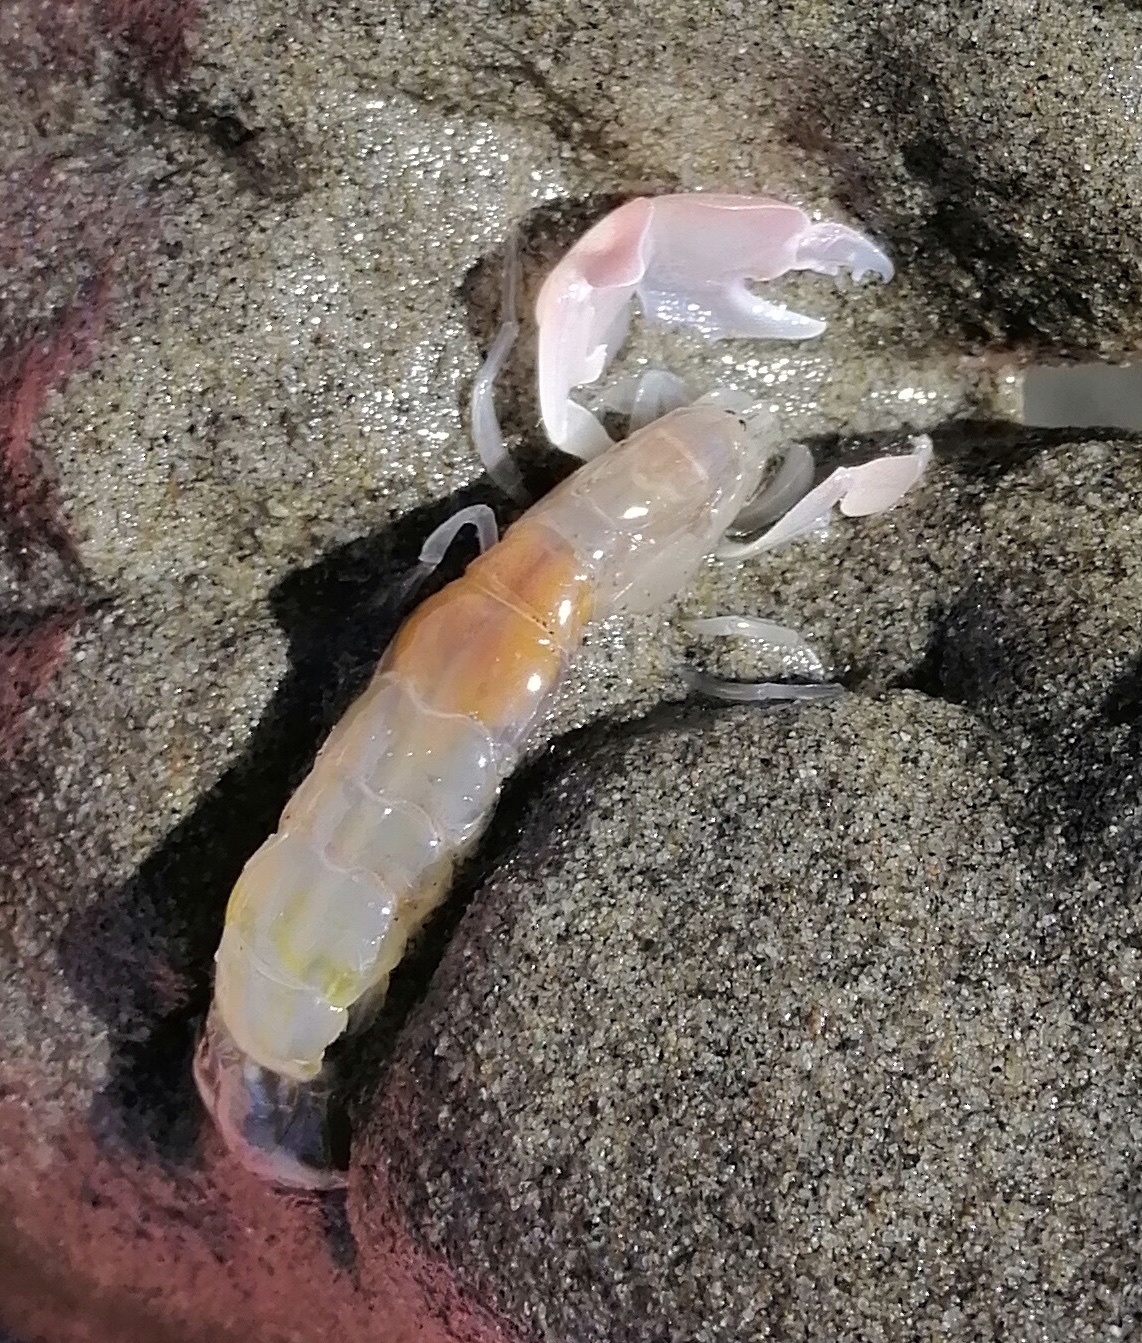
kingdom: Animalia
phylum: Arthropoda
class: Malacostraca
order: Decapoda
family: Callianassidae
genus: Filhollianassa
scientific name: Filhollianassa filholi
